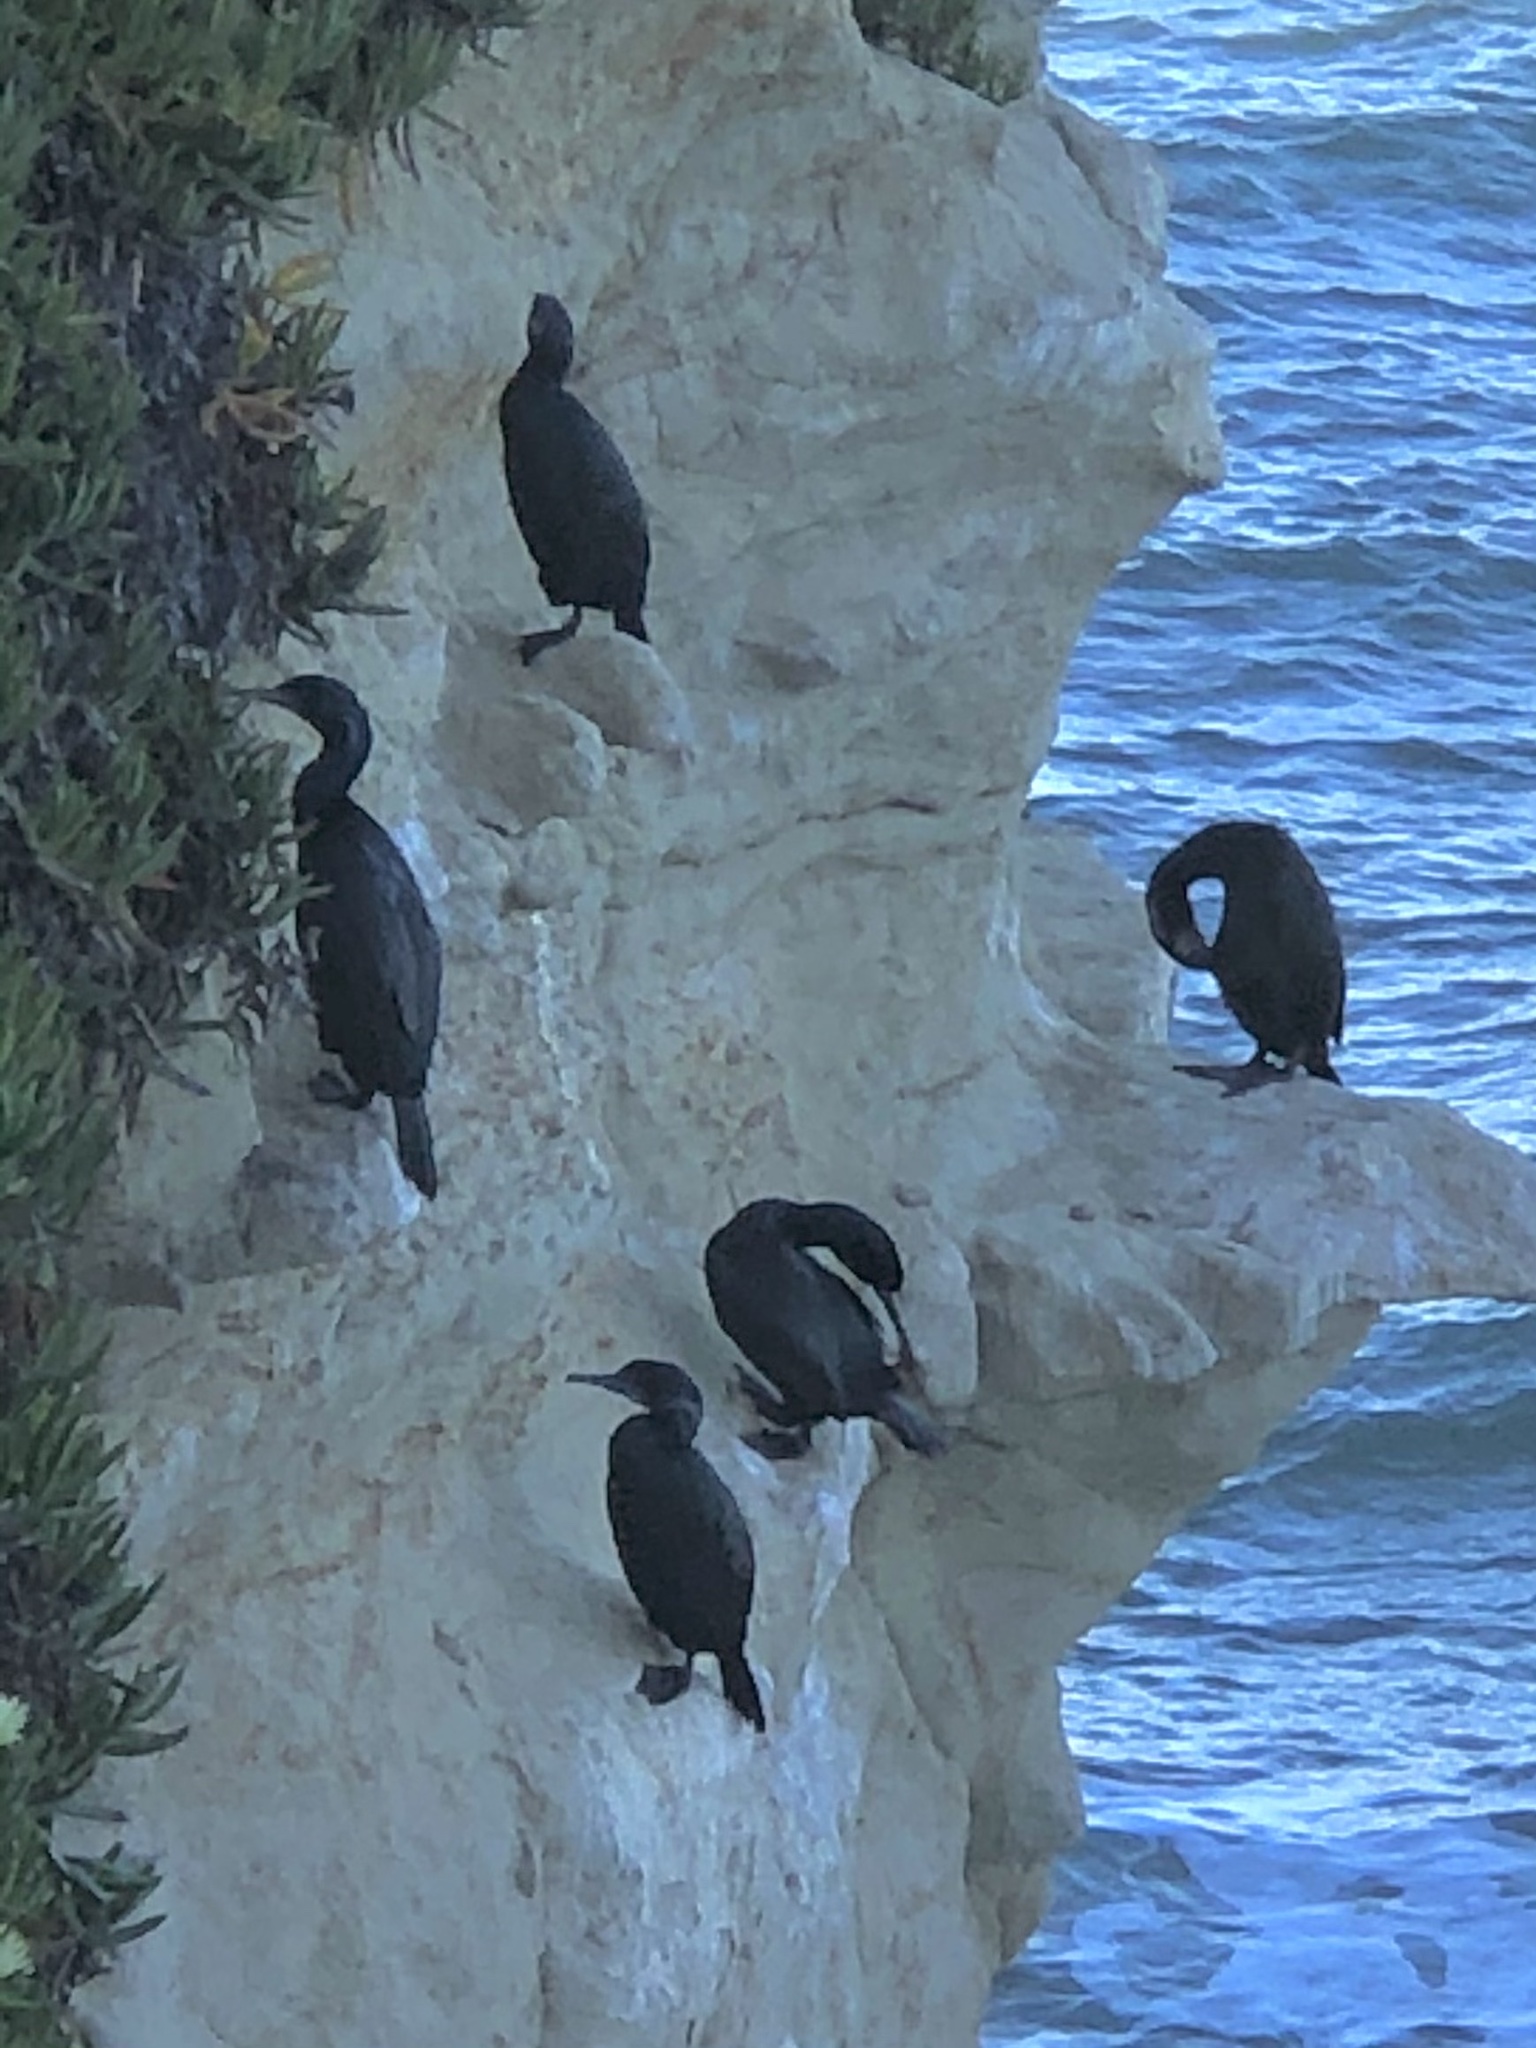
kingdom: Animalia
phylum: Chordata
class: Aves
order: Suliformes
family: Phalacrocoracidae
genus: Urile
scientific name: Urile penicillatus
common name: Brandt's cormorant
